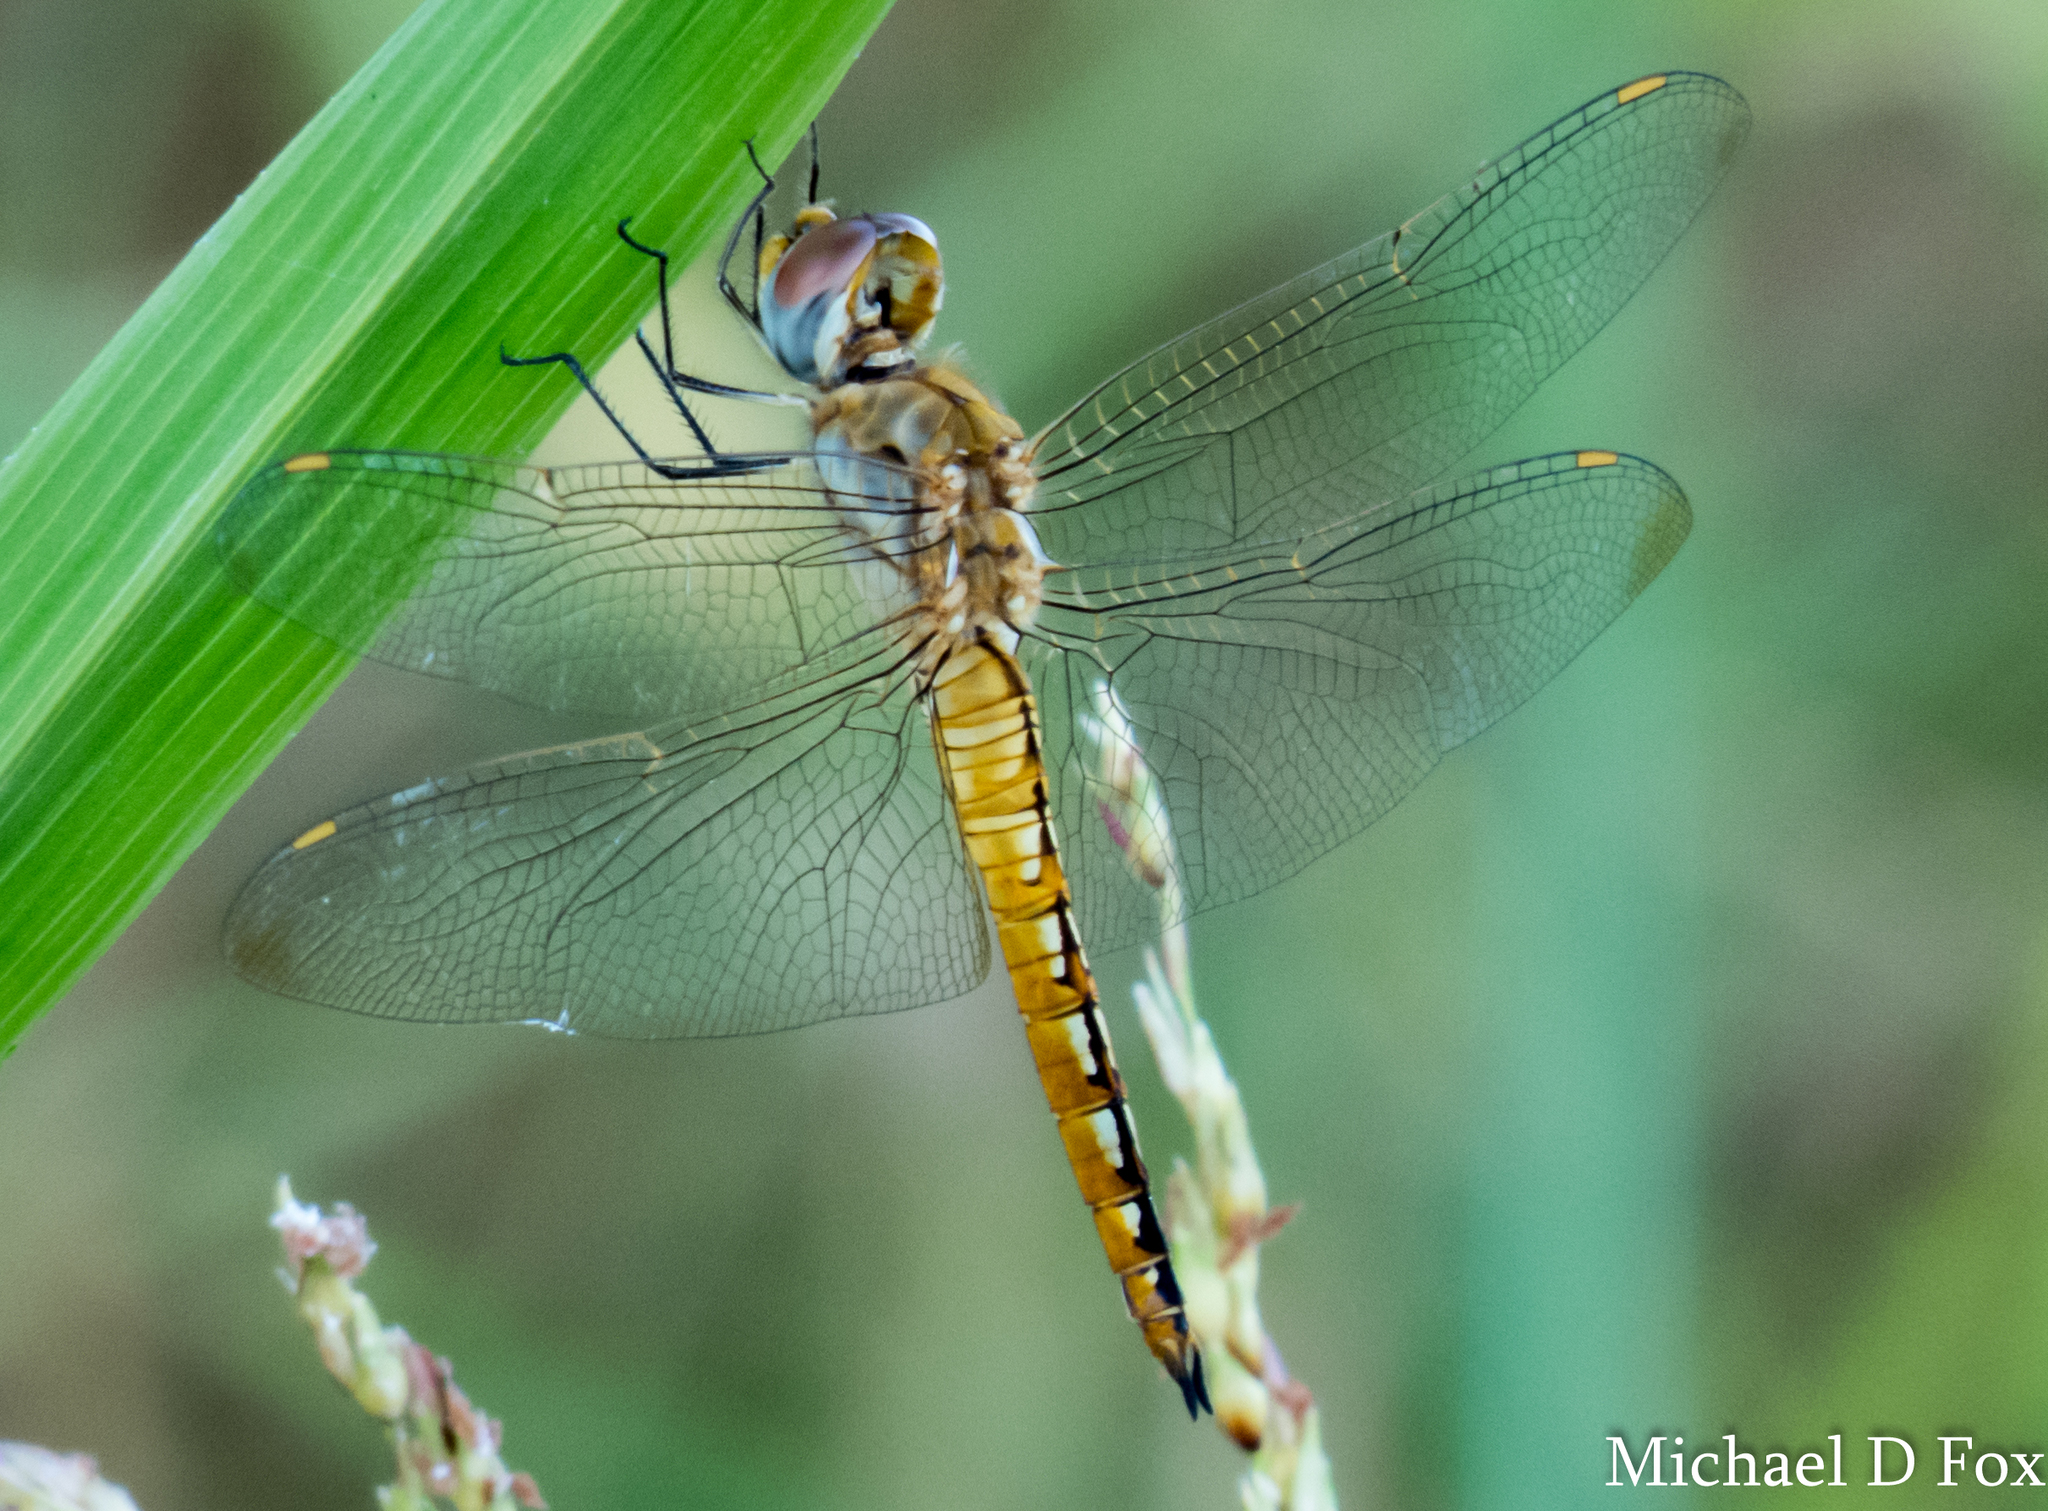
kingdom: Animalia
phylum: Arthropoda
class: Insecta
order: Odonata
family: Libellulidae
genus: Pantala
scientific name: Pantala flavescens
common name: Wandering glider
